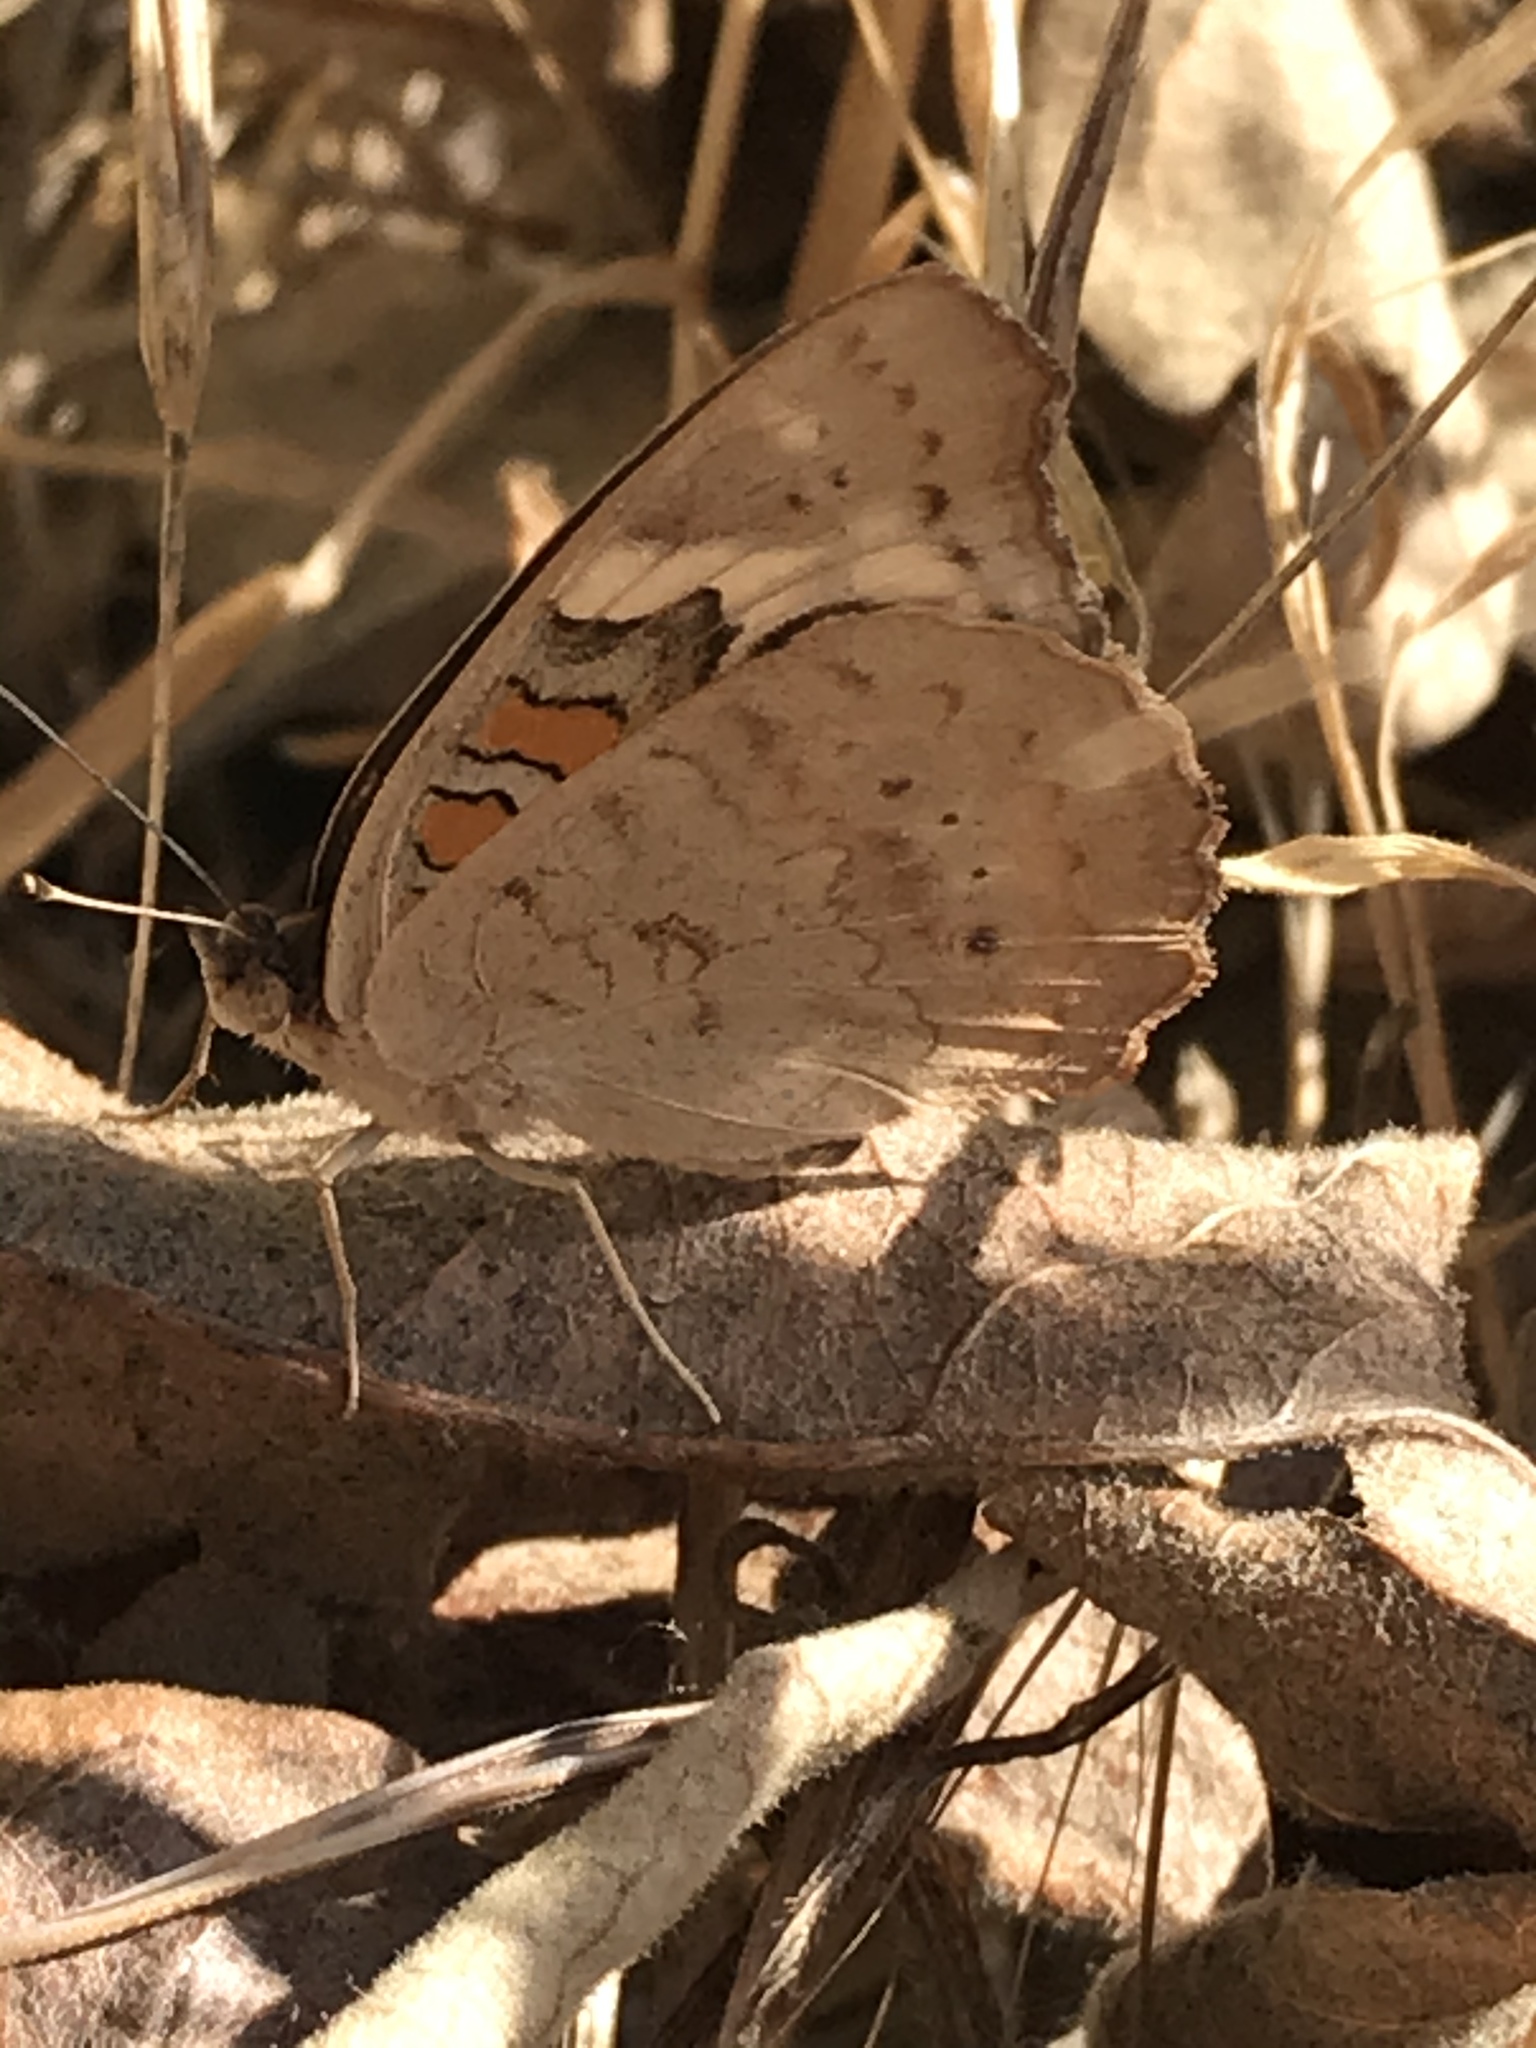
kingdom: Animalia
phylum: Arthropoda
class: Insecta
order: Lepidoptera
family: Nymphalidae
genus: Junonia
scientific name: Junonia grisea
